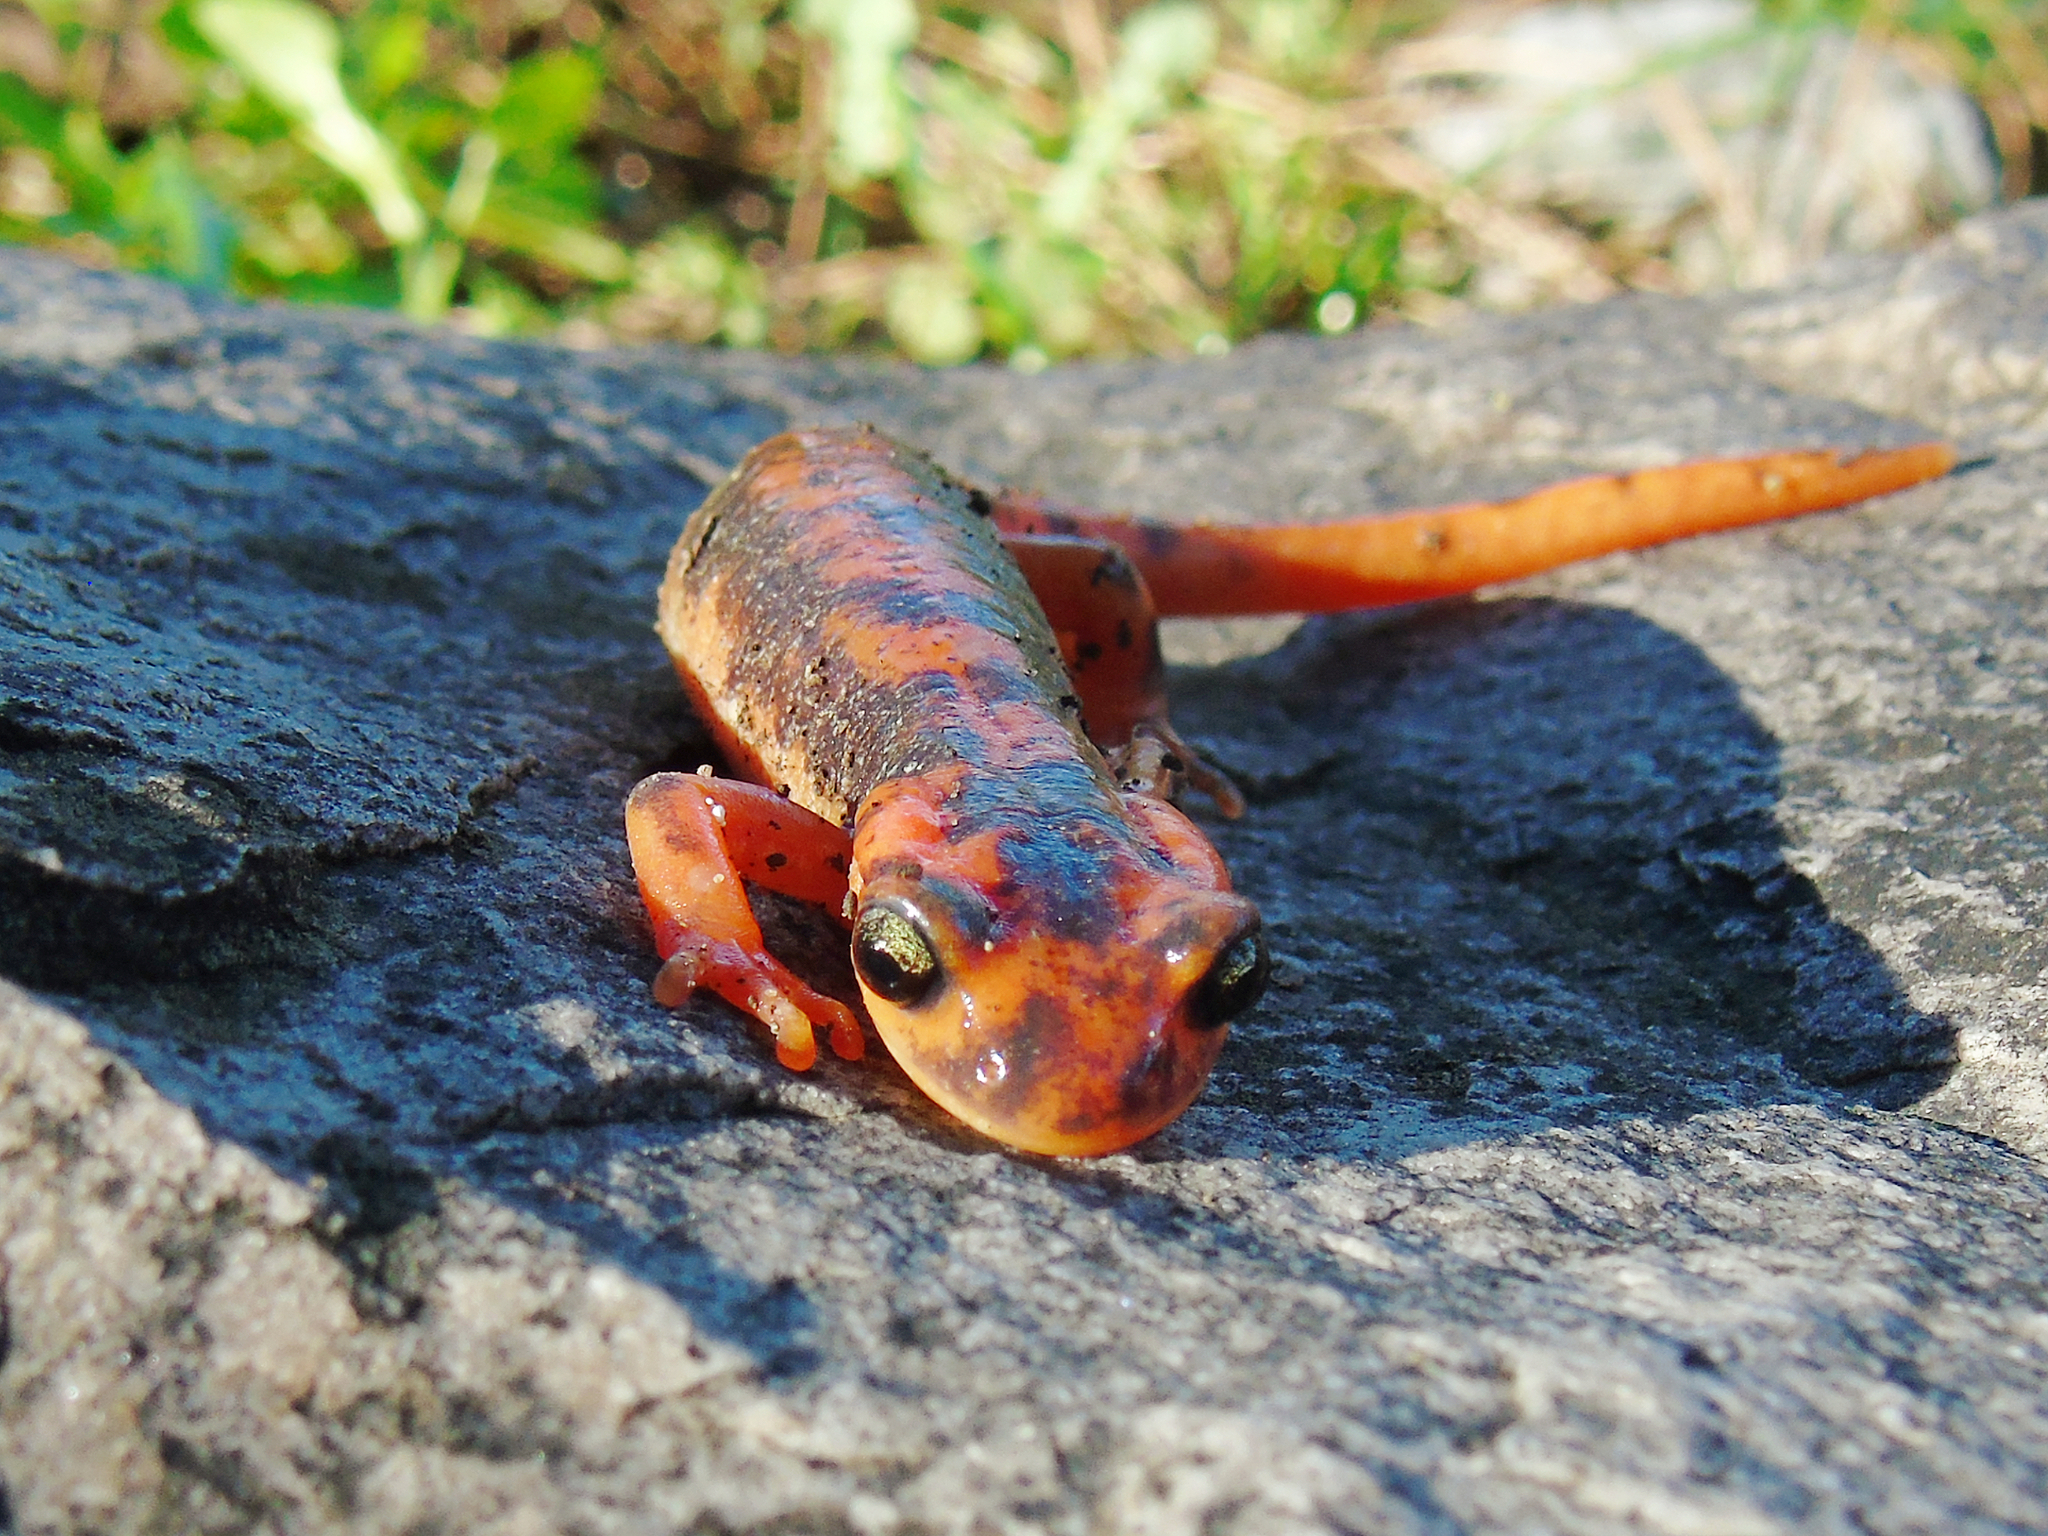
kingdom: Animalia
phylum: Chordata
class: Amphibia
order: Caudata
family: Salamandridae
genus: Lyciasalamandra
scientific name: Lyciasalamandra fazilae
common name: Fazila's salamander
